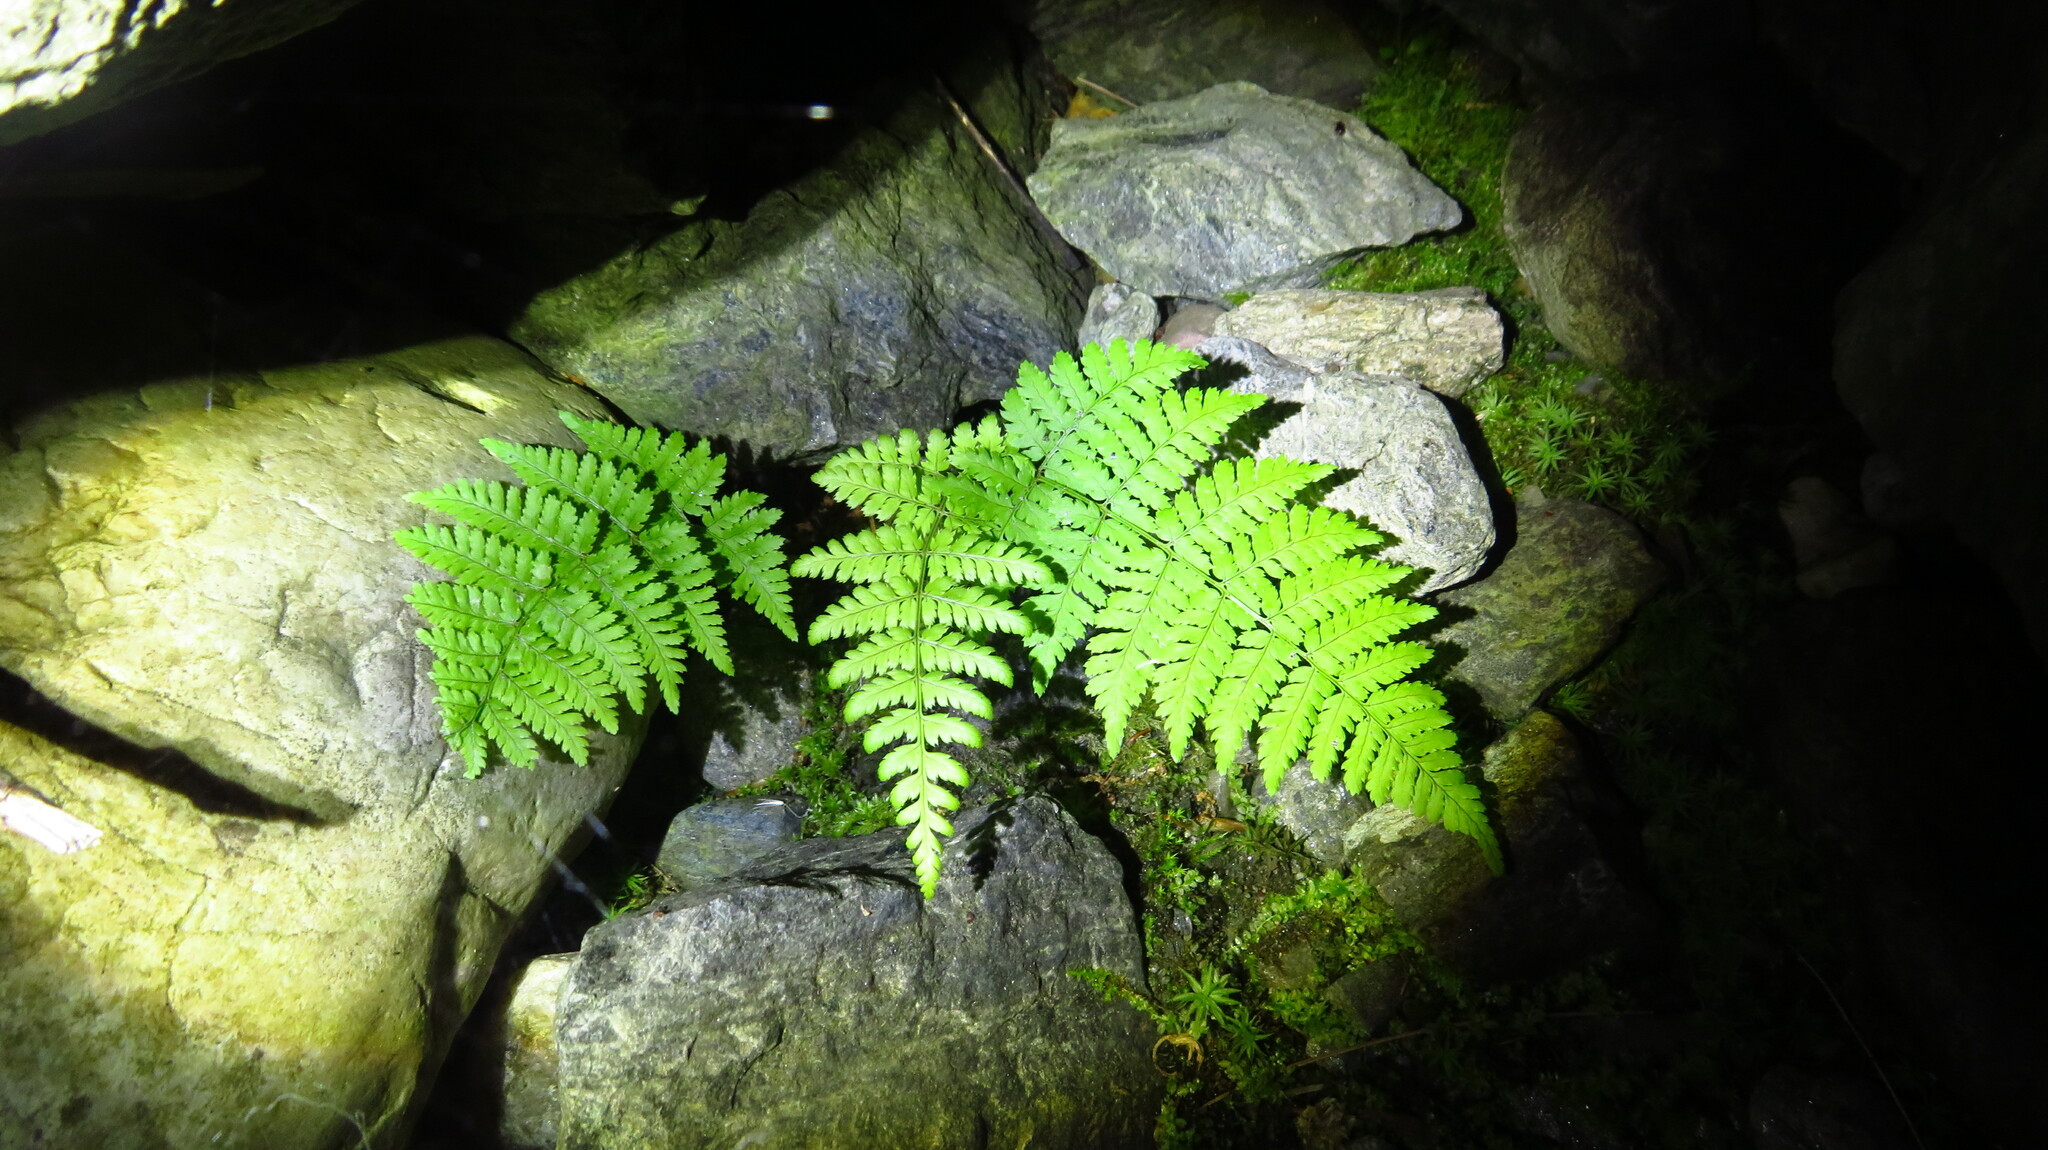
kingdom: Plantae
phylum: Tracheophyta
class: Polypodiopsida
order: Polypodiales
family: Dryopteridaceae
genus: Dryopteris
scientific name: Dryopteris intermedia
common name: Evergreen wood fern
